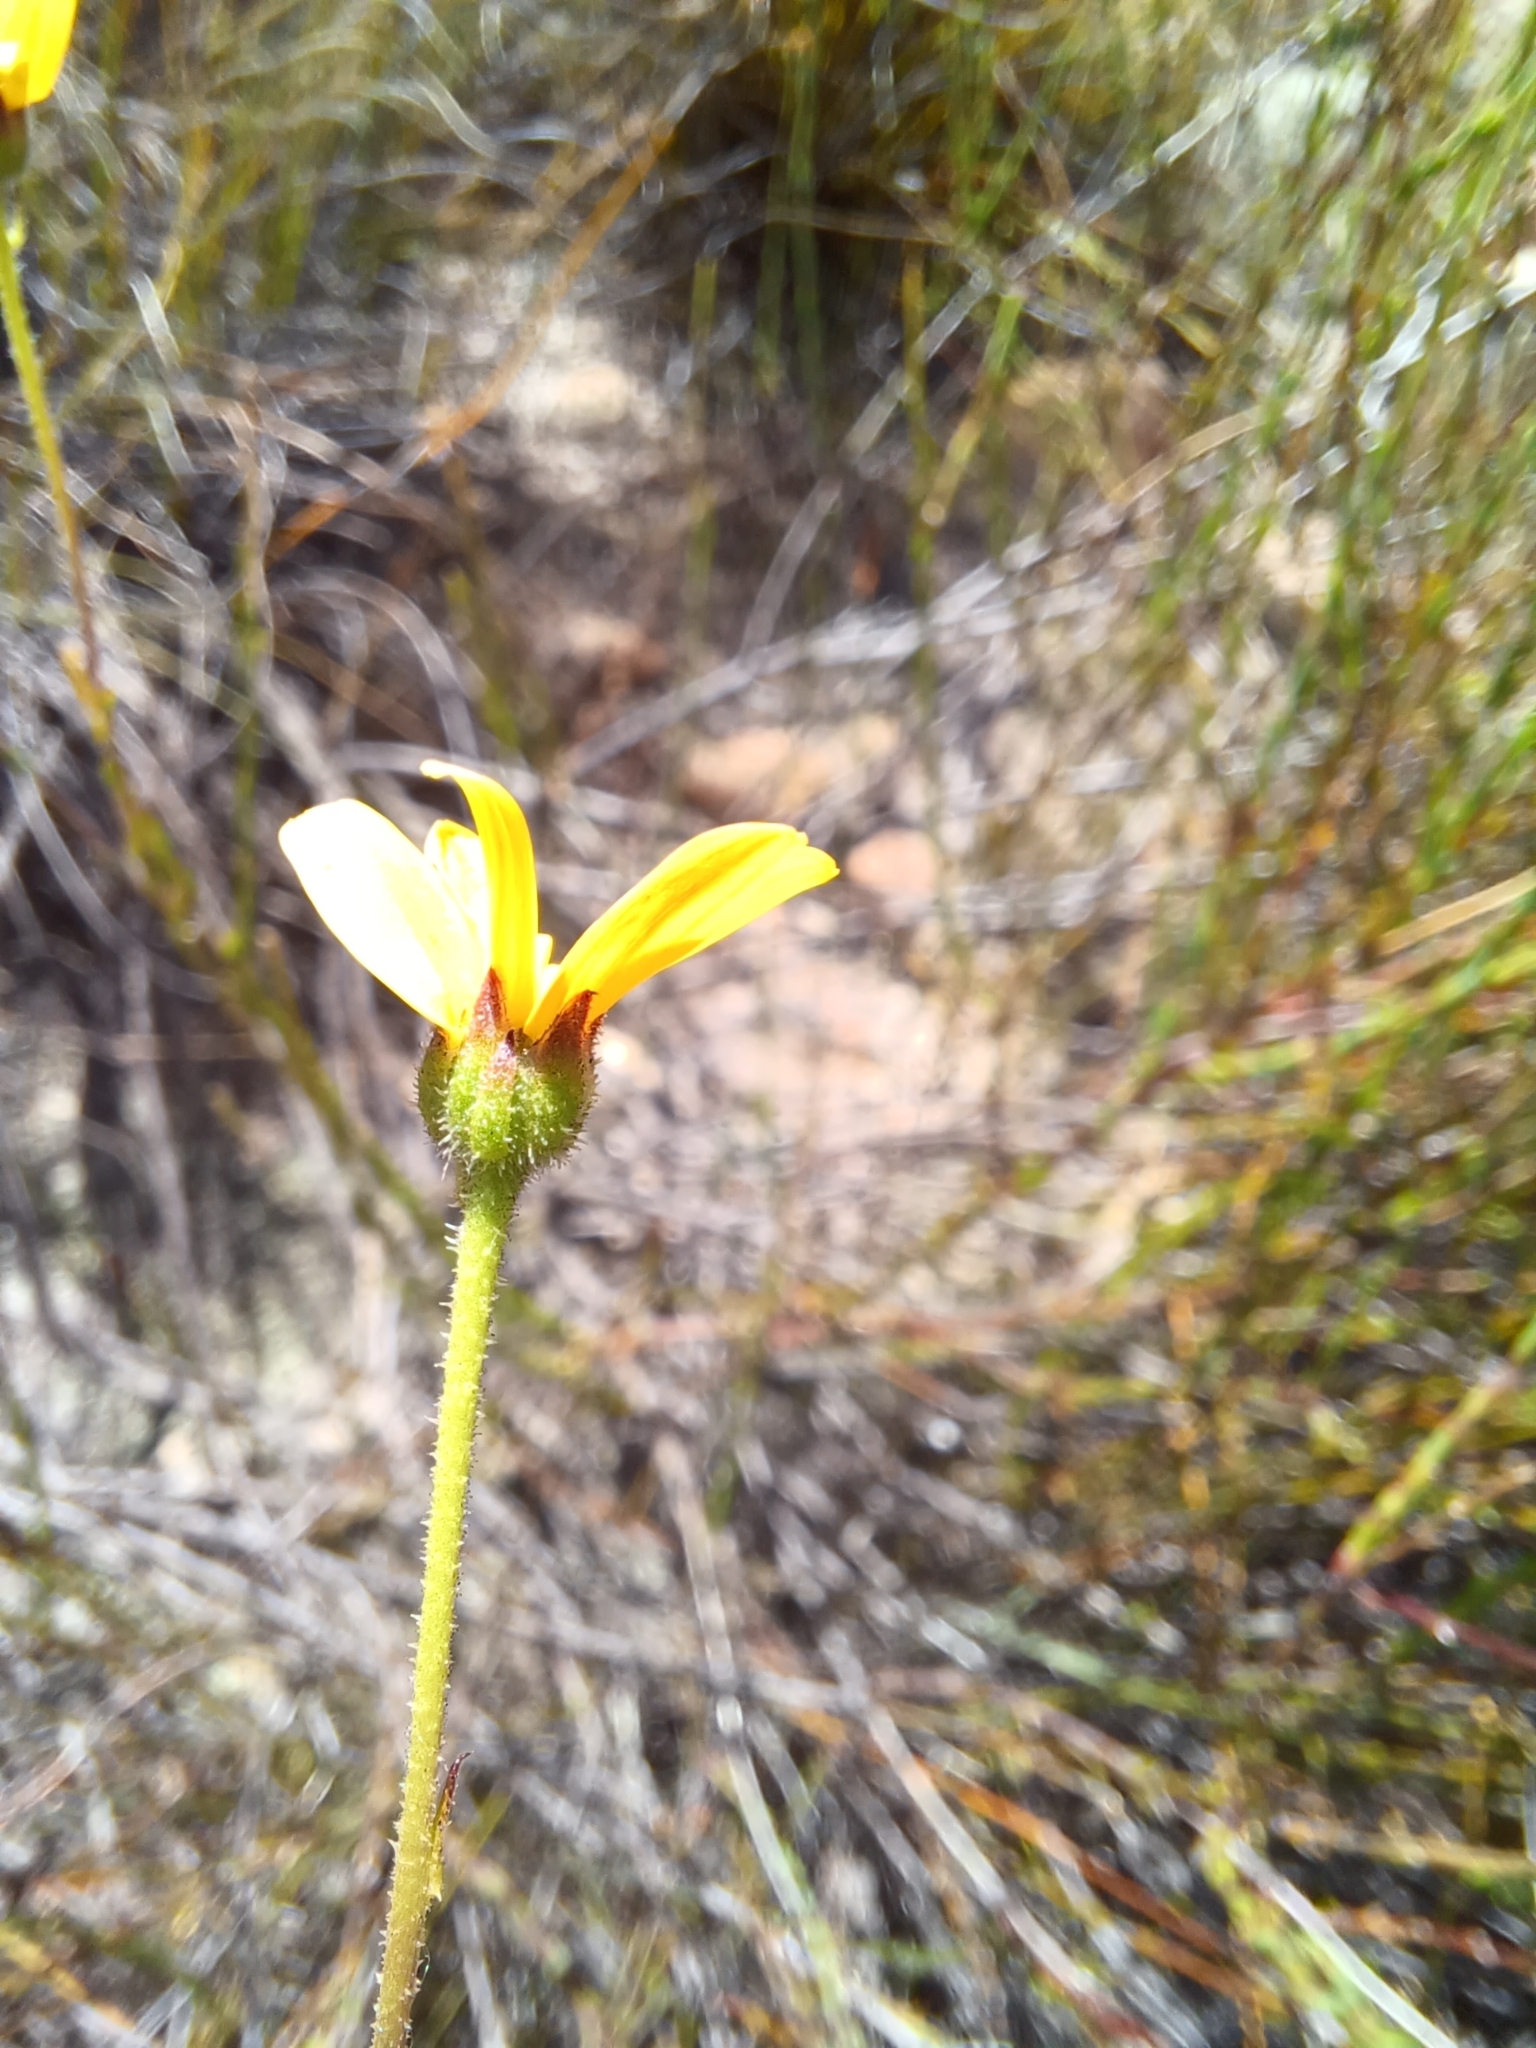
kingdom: Plantae
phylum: Tracheophyta
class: Magnoliopsida
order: Asterales
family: Asteraceae
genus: Osteospermum
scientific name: Osteospermum polygaloides
